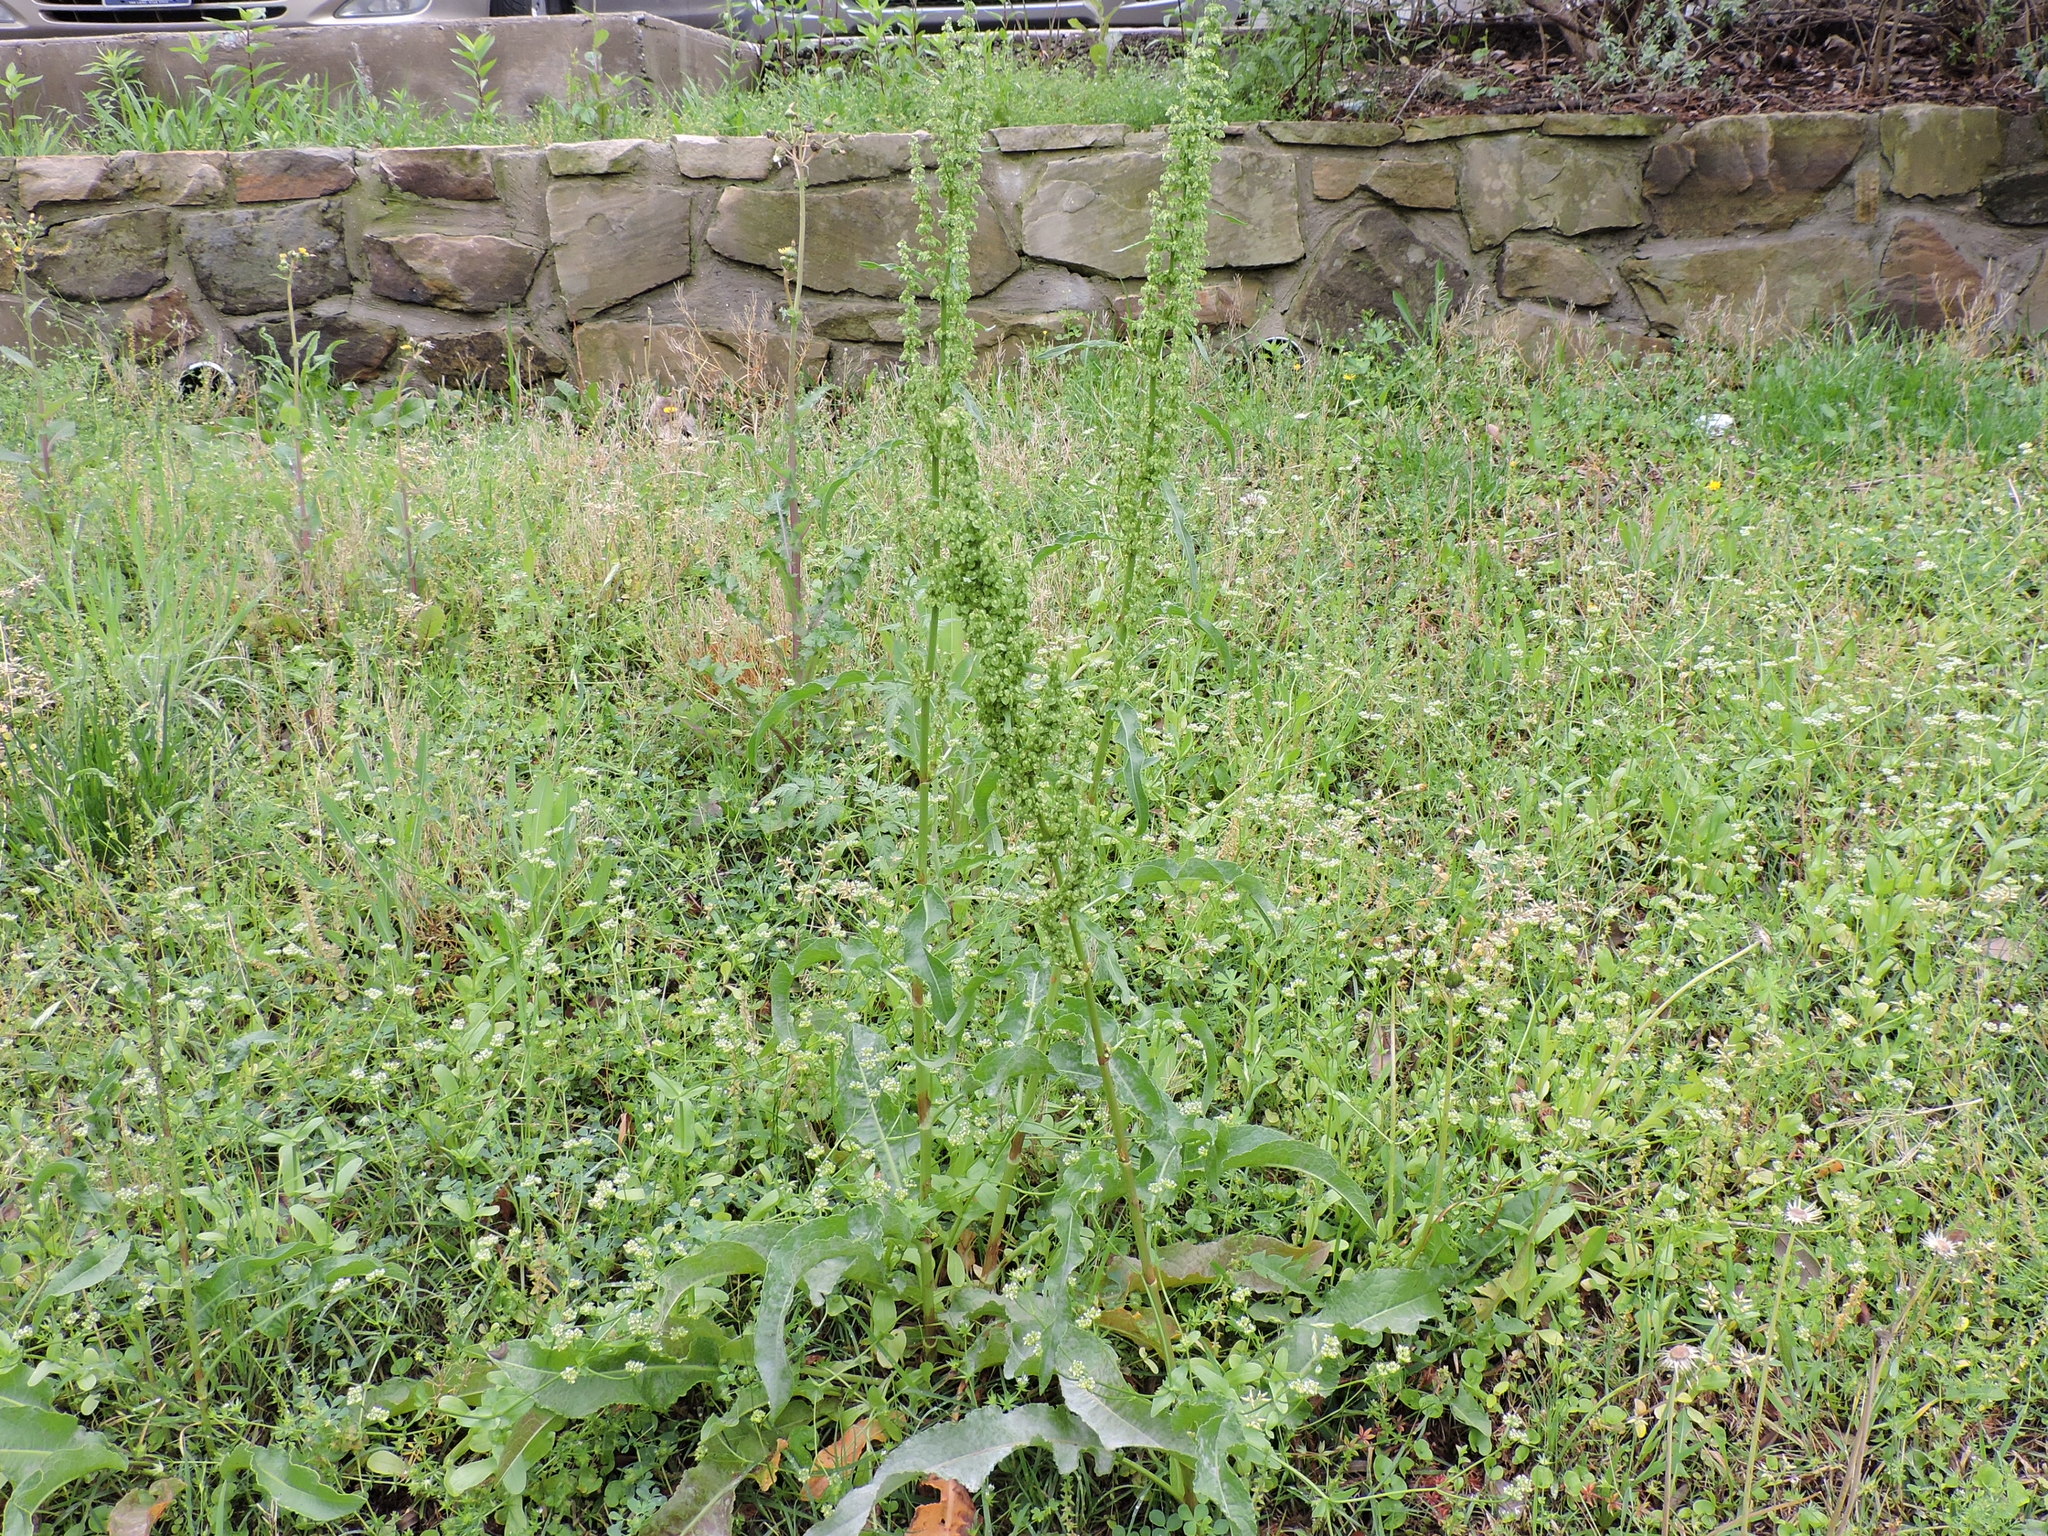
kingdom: Plantae
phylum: Tracheophyta
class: Magnoliopsida
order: Caryophyllales
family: Polygonaceae
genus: Rumex
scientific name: Rumex crispus
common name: Curled dock
